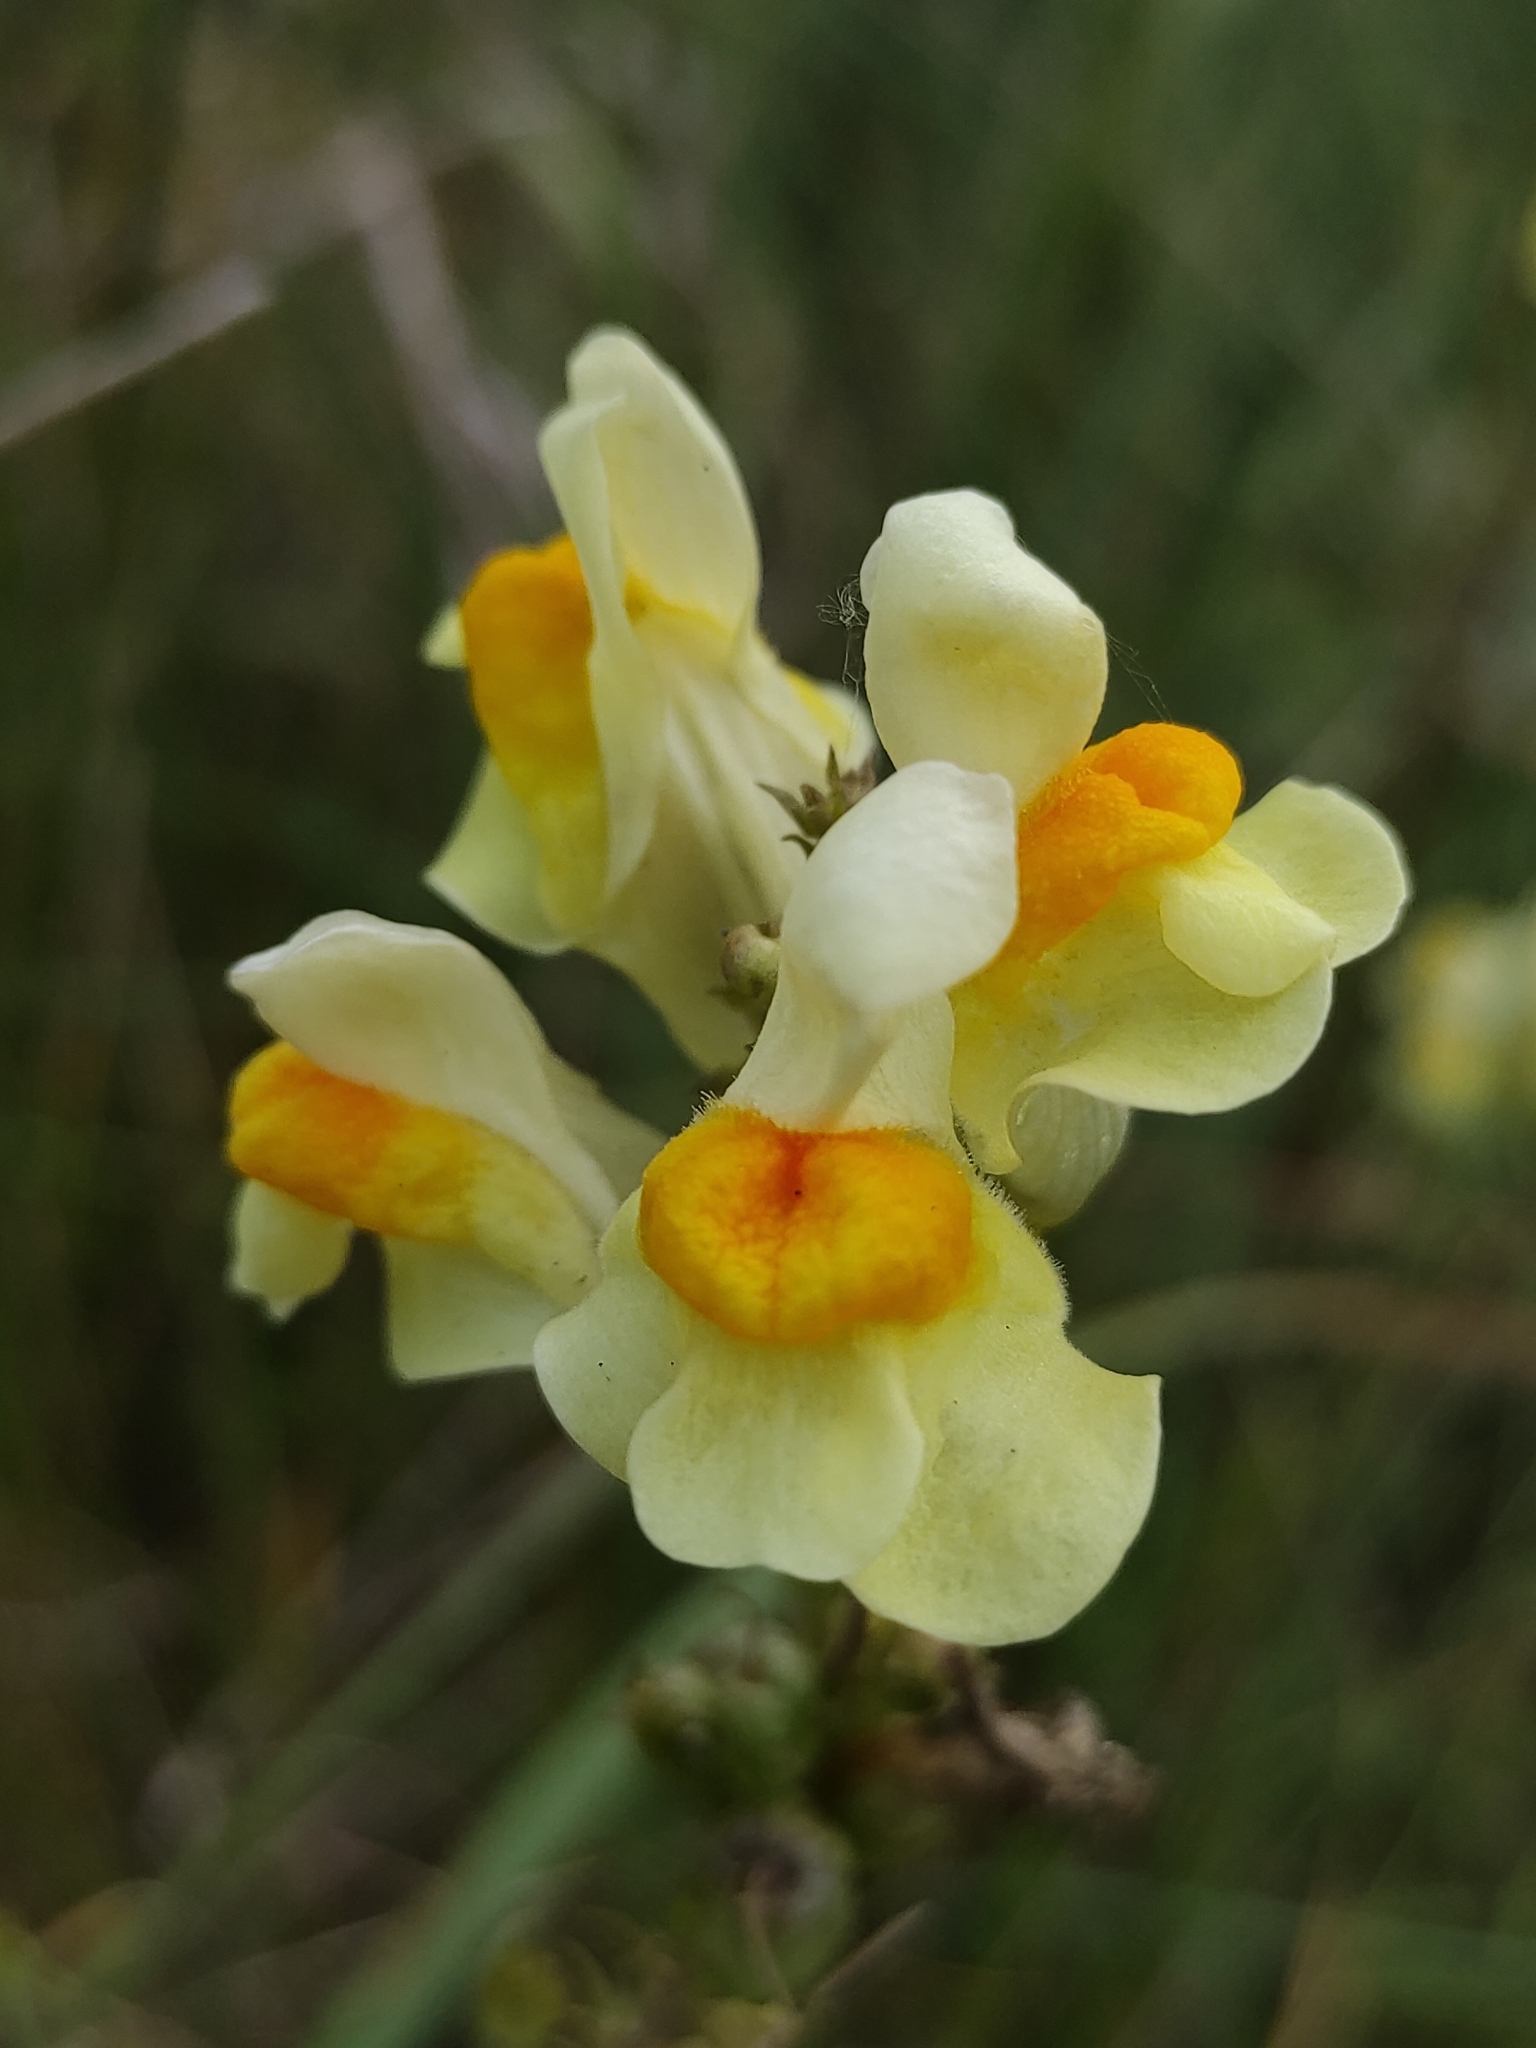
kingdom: Plantae
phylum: Tracheophyta
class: Magnoliopsida
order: Lamiales
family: Plantaginaceae
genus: Linaria
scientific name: Linaria vulgaris
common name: Butter and eggs
